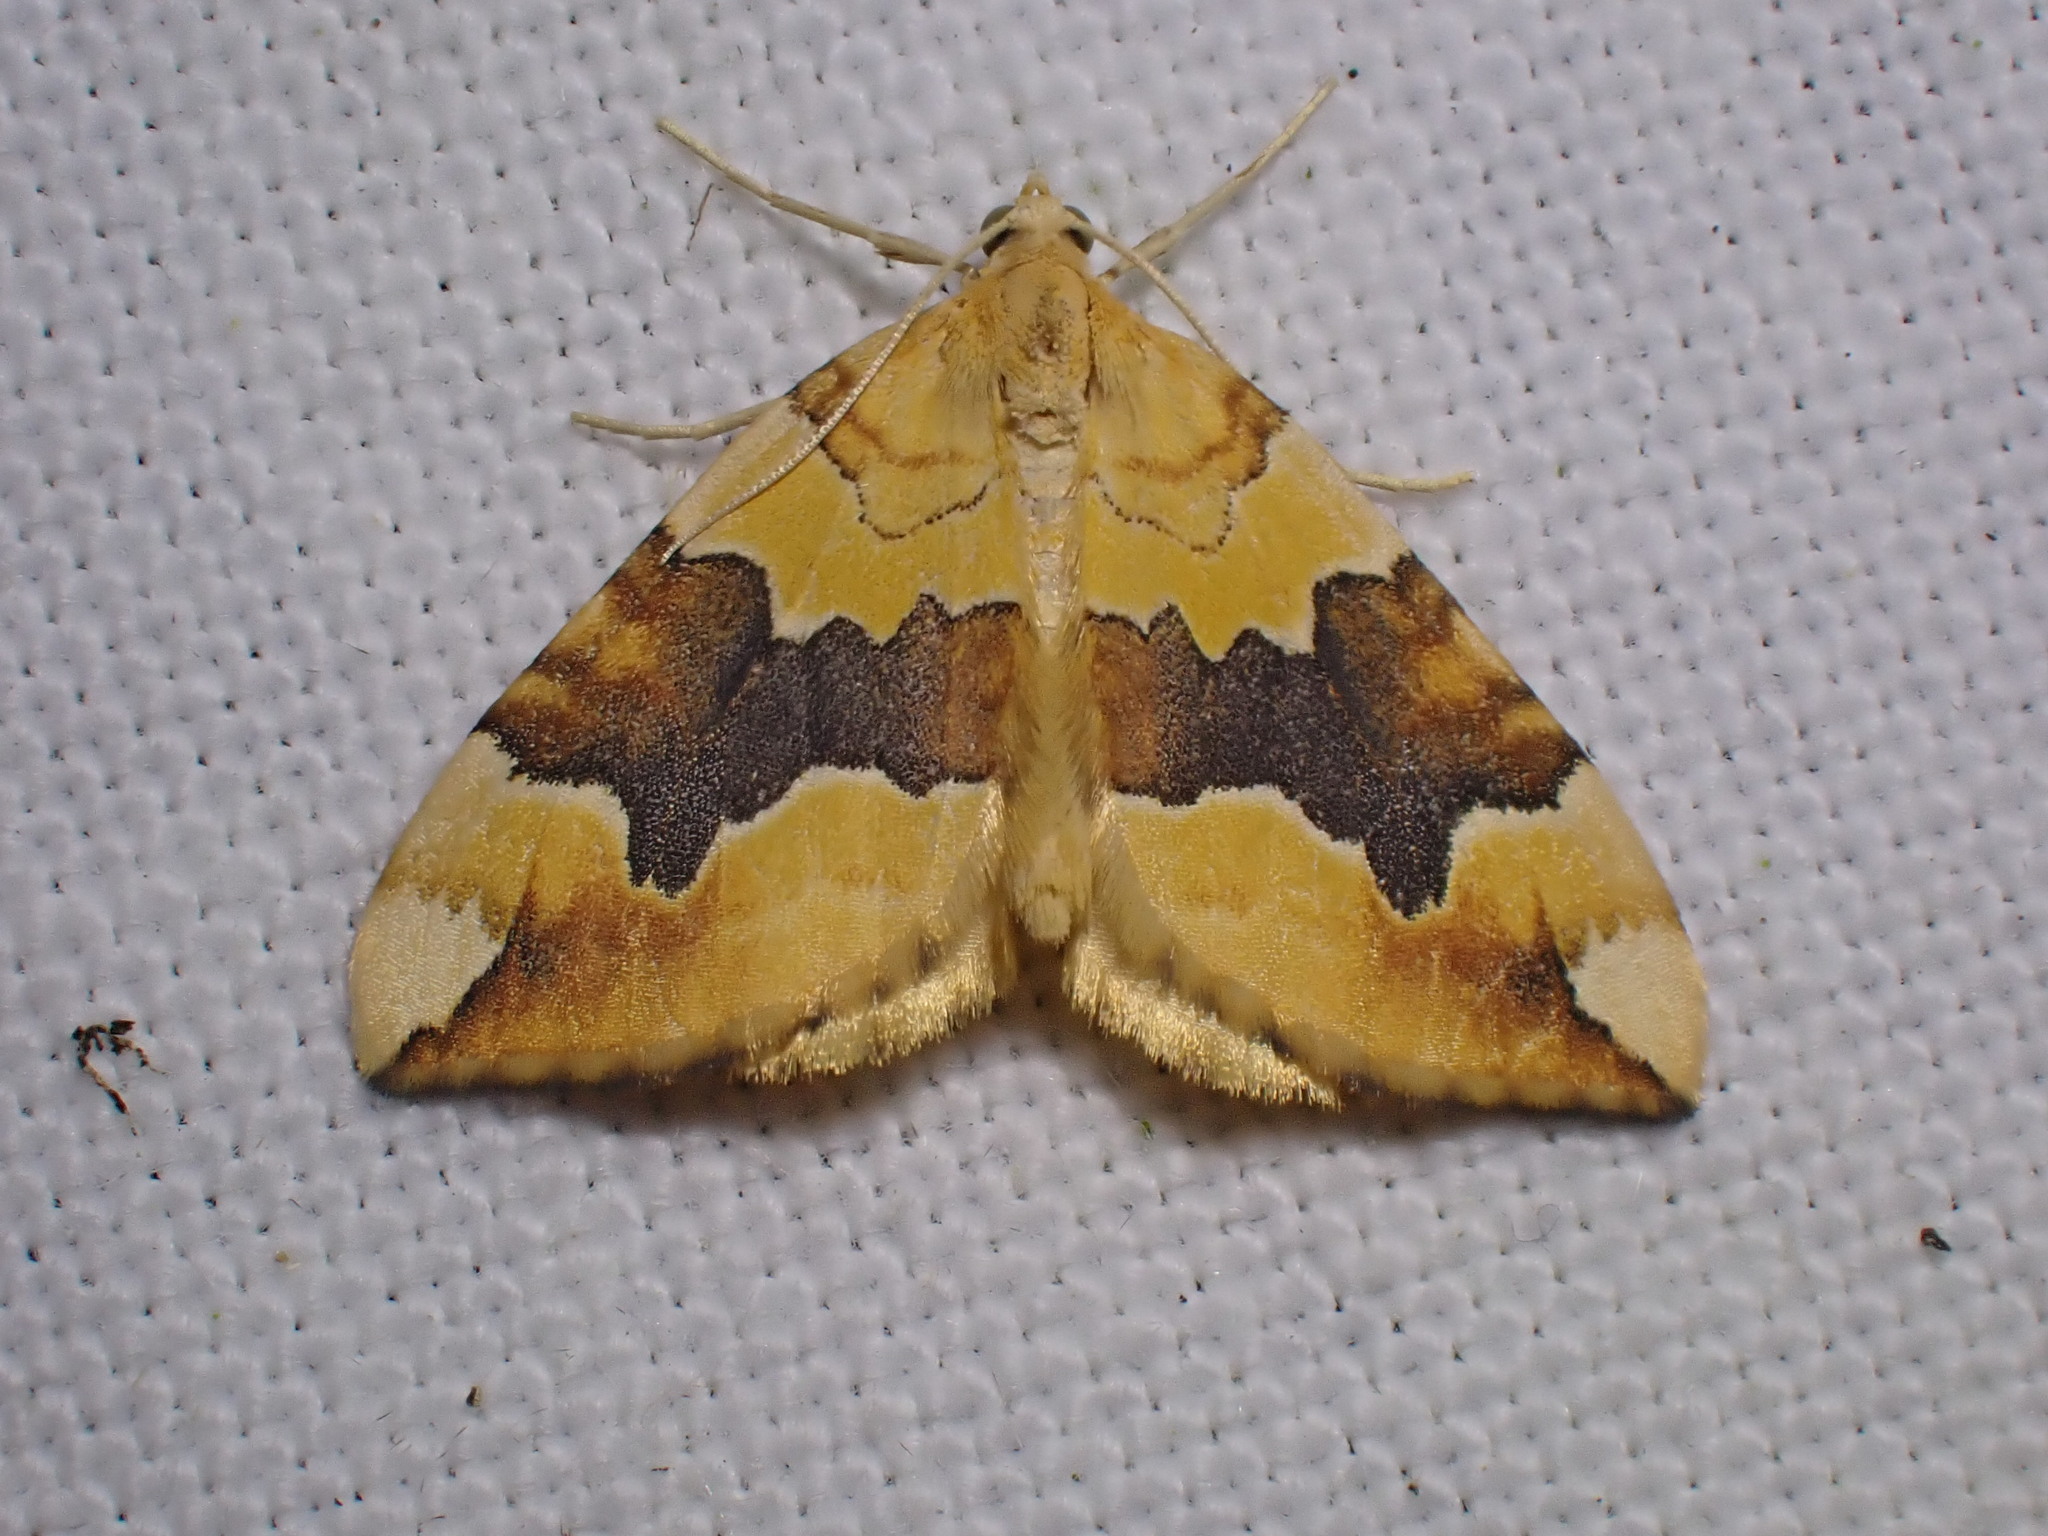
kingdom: Animalia
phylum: Arthropoda
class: Insecta
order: Lepidoptera
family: Geometridae
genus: Cidaria
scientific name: Cidaria fulvata
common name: Barred yellow
